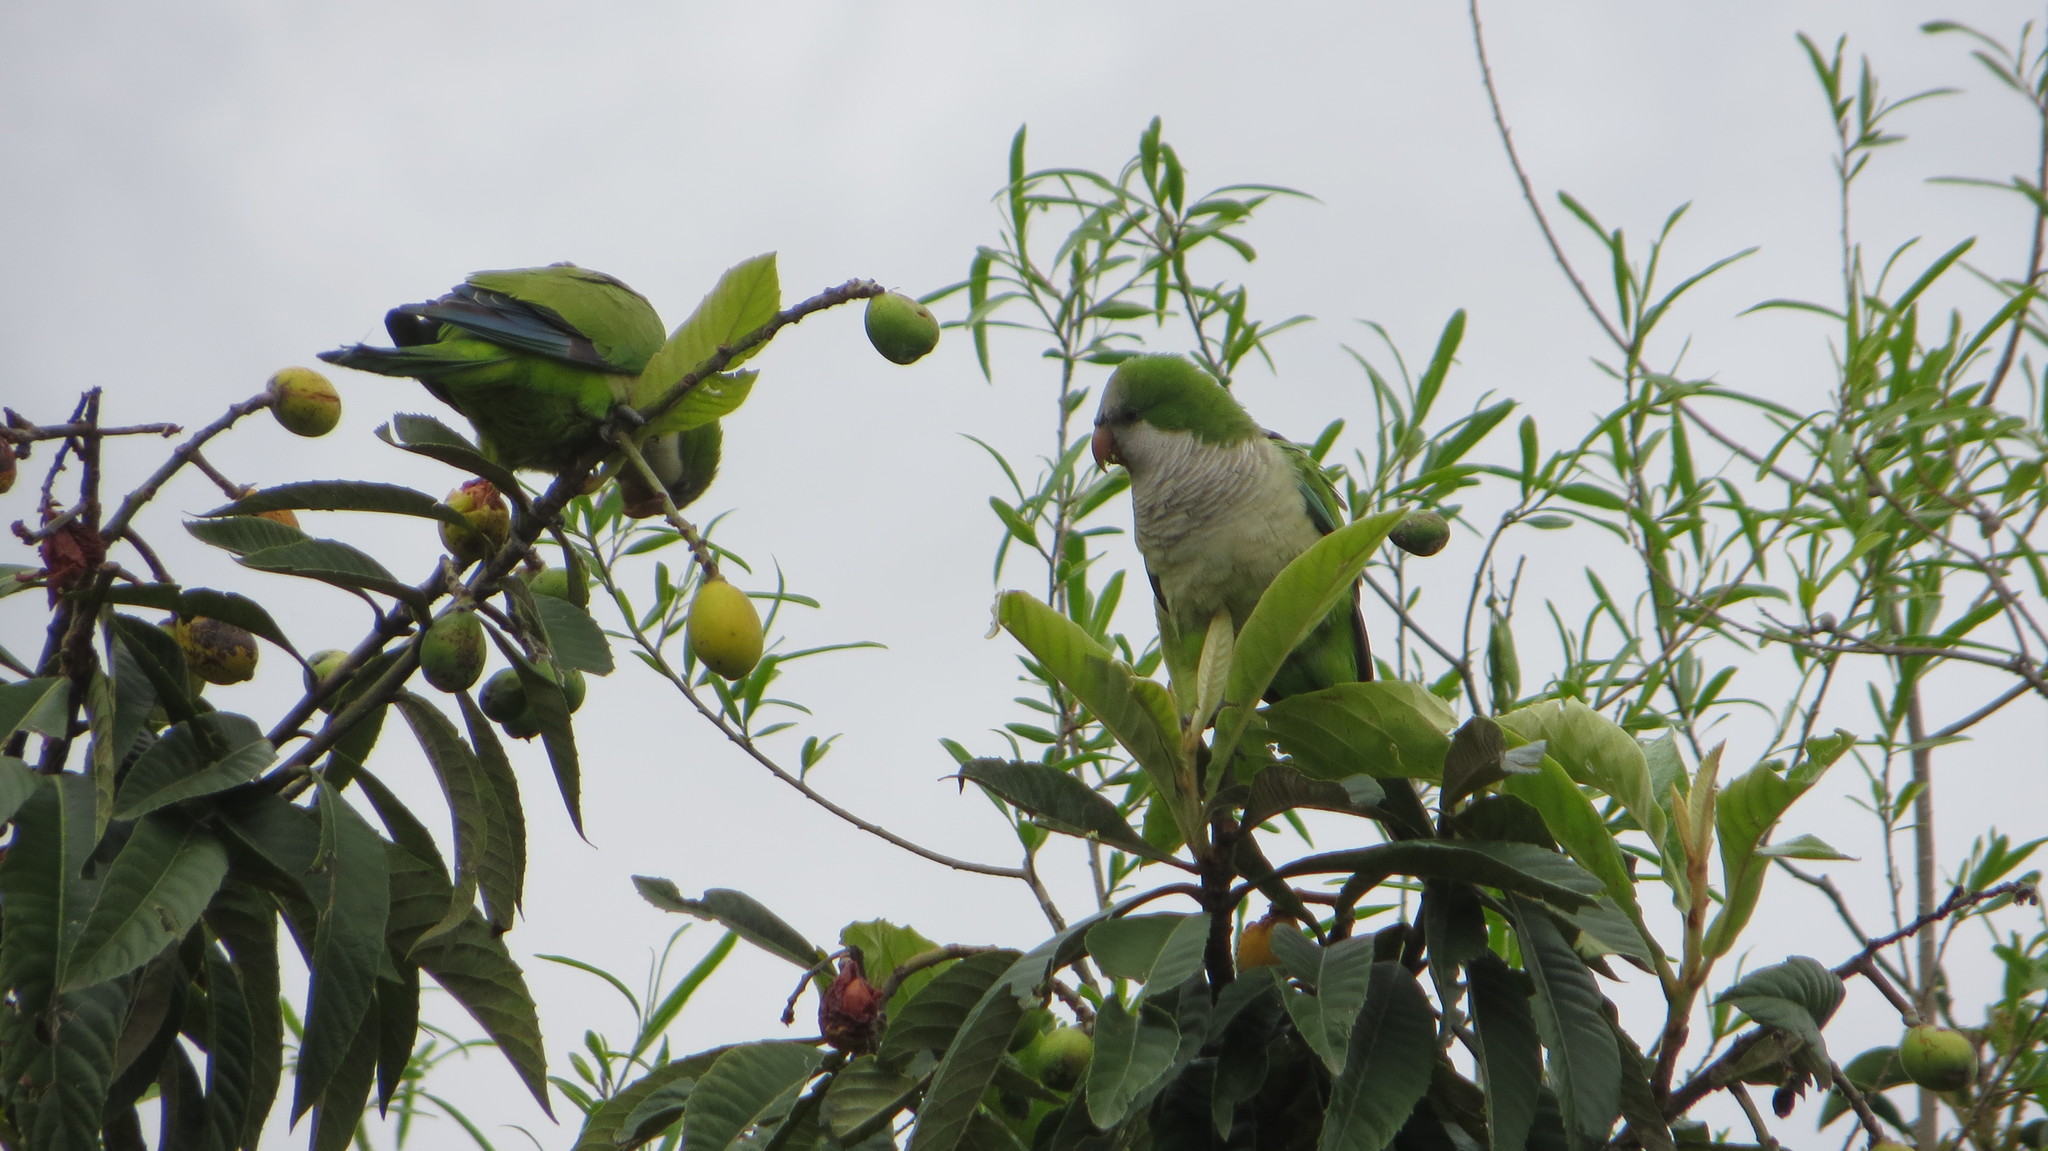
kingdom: Animalia
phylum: Chordata
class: Aves
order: Psittaciformes
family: Psittacidae
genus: Myiopsitta
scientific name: Myiopsitta monachus
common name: Monk parakeet
